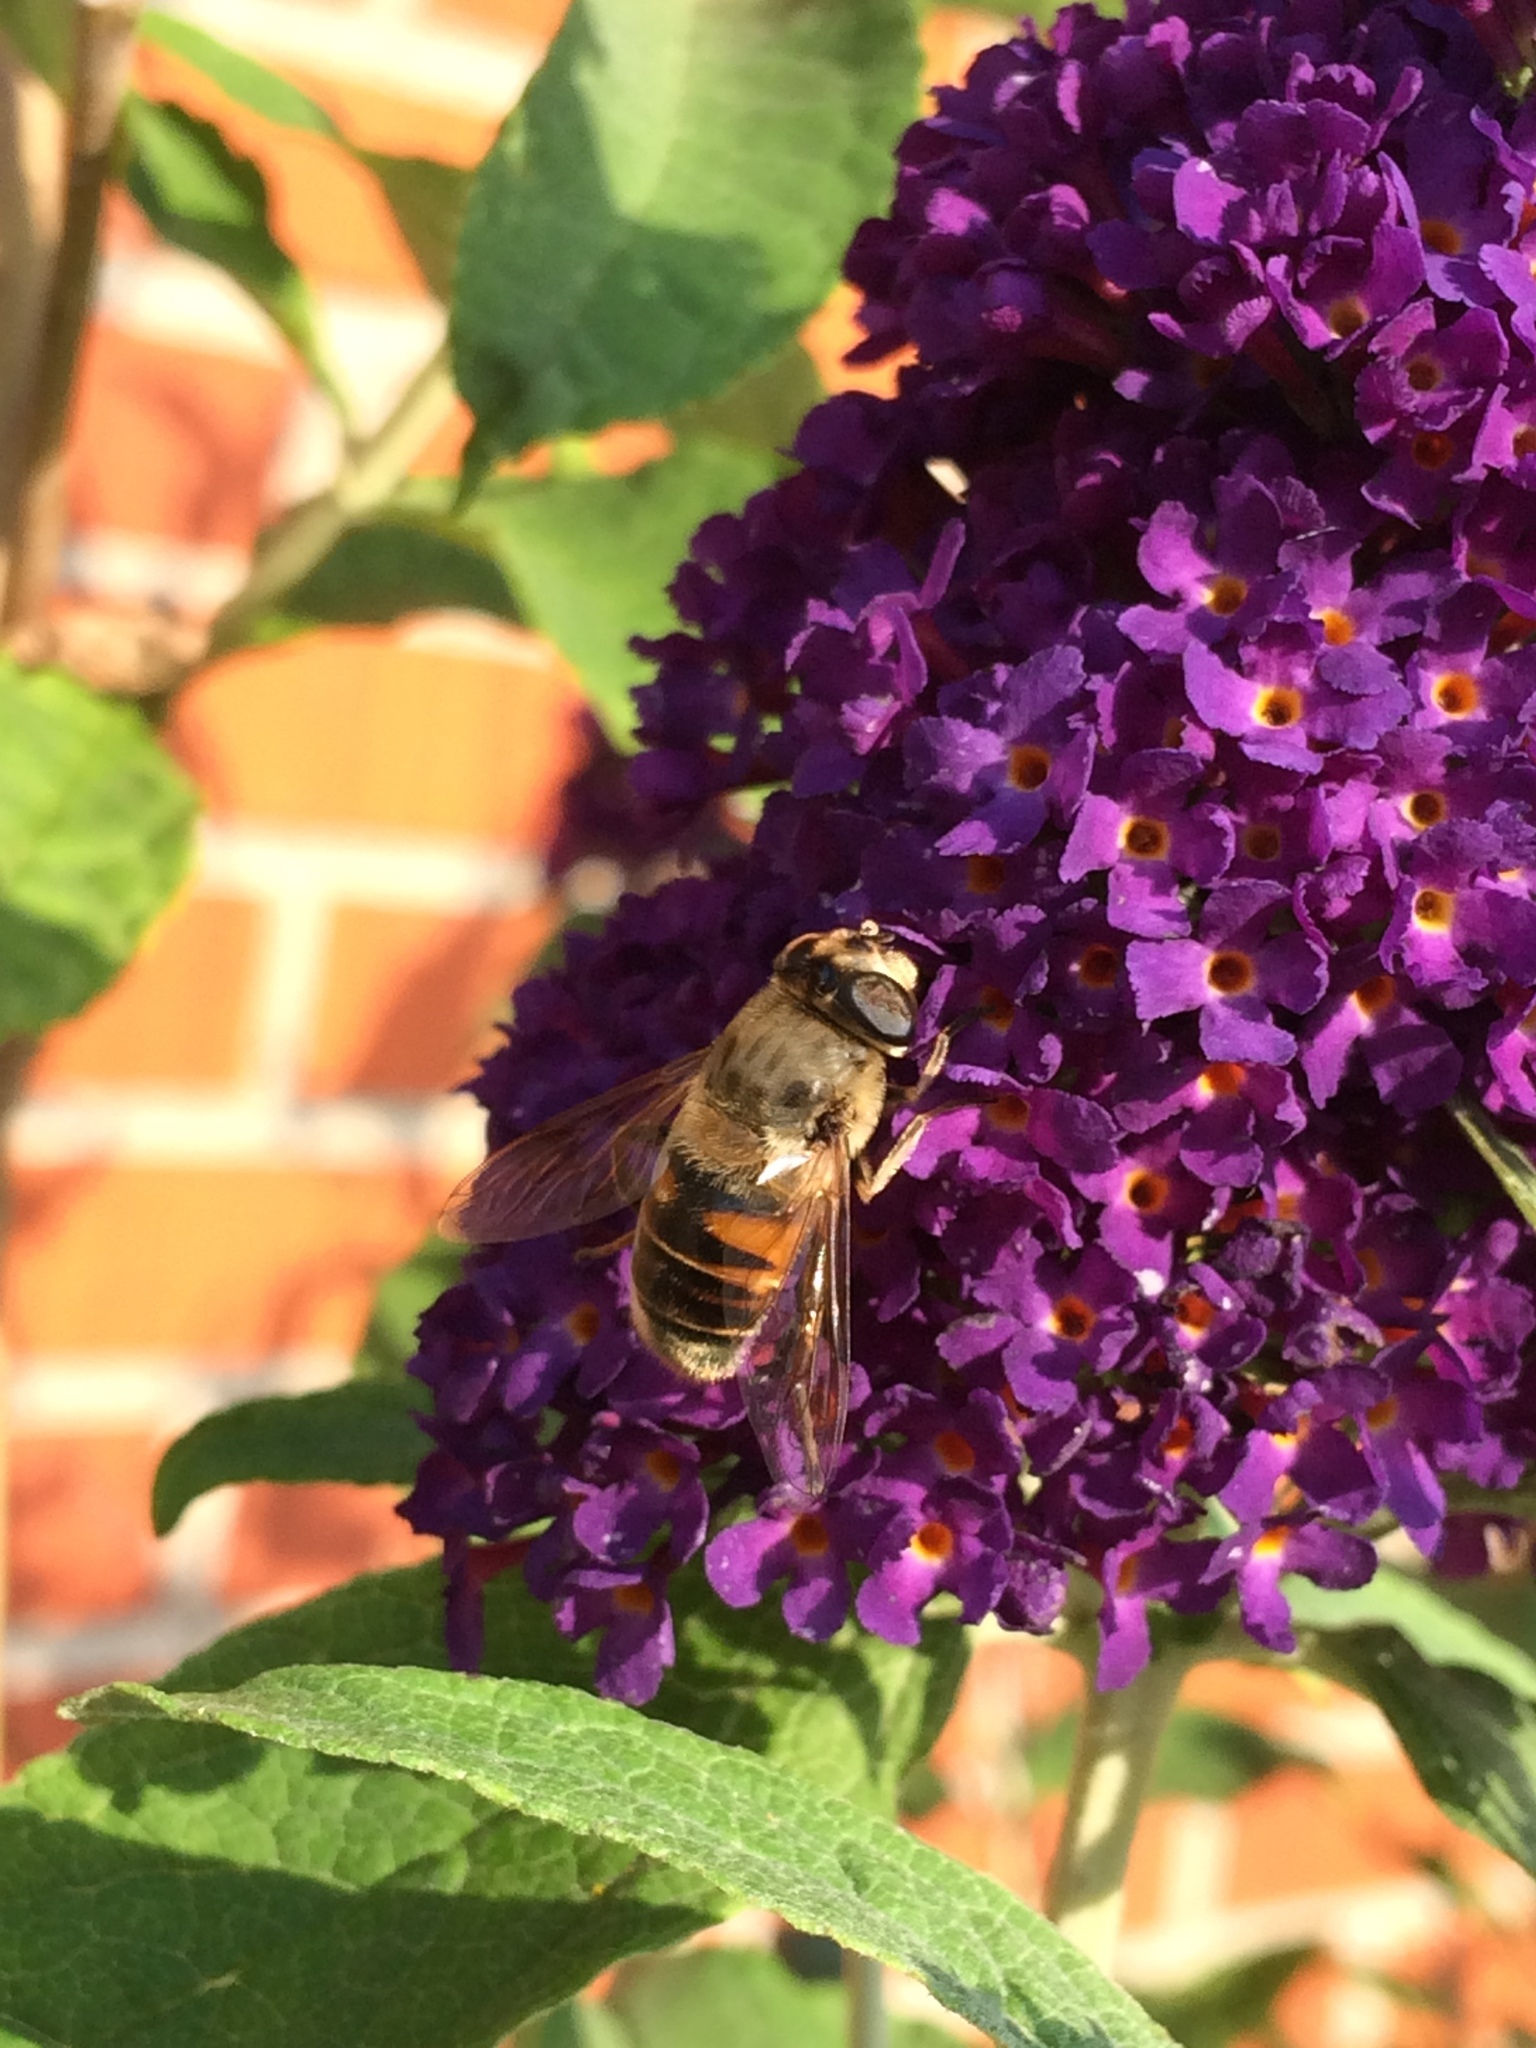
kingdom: Animalia
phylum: Arthropoda
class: Insecta
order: Diptera
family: Syrphidae
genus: Eristalis
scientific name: Eristalis tenax
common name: Drone fly
